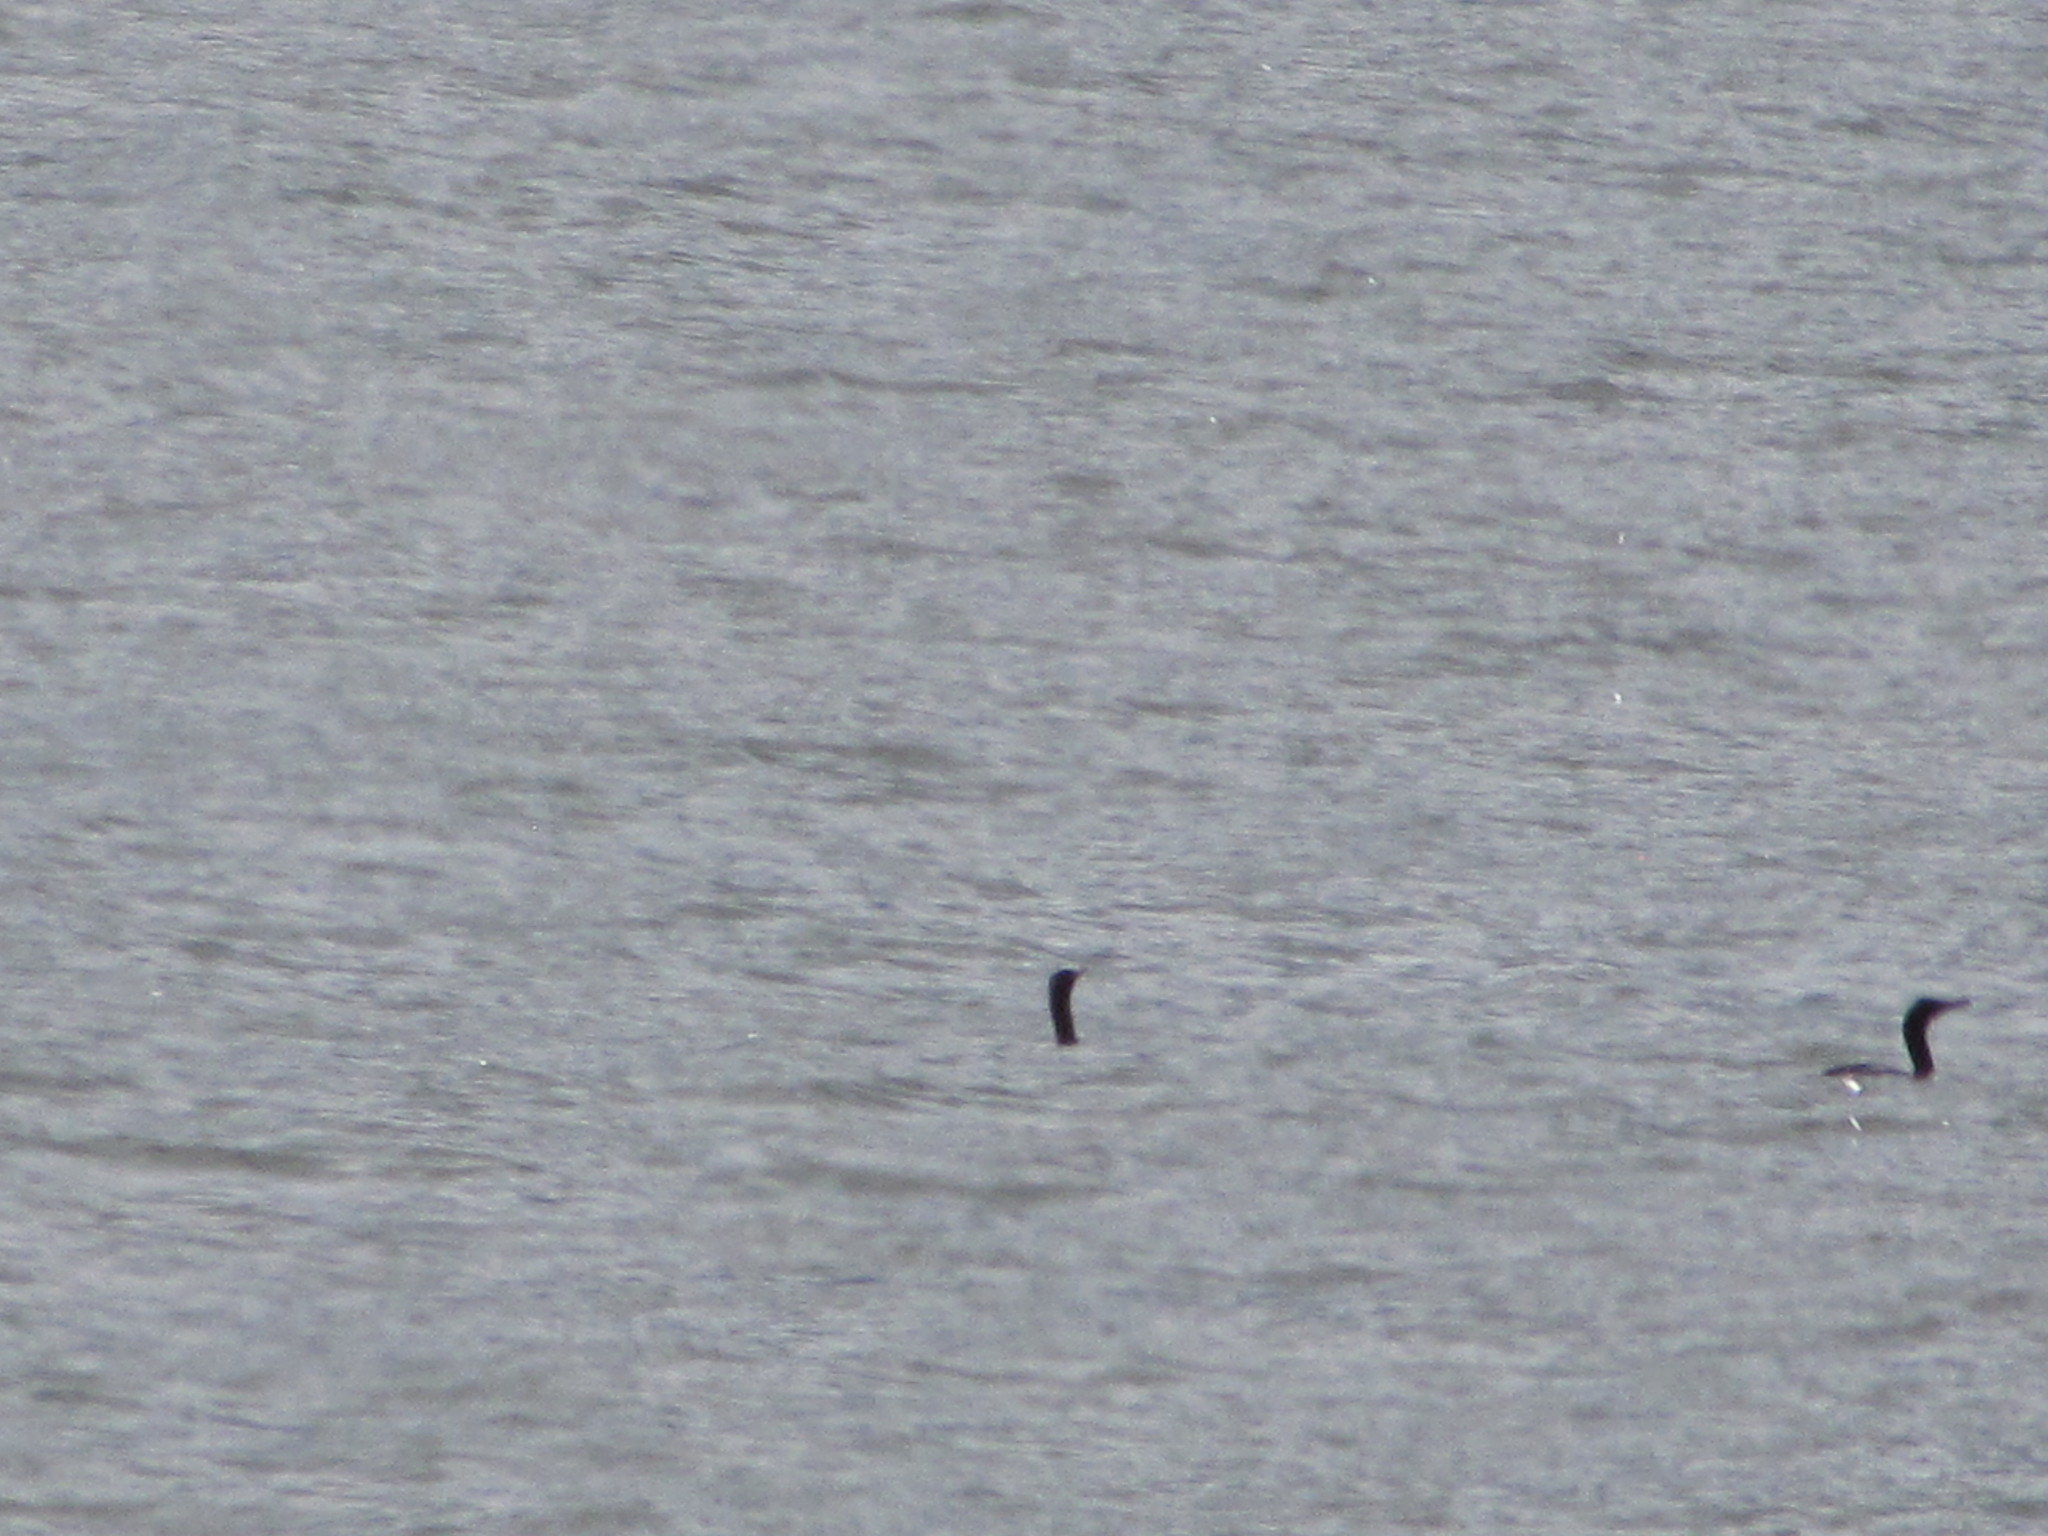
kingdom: Animalia
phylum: Chordata
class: Aves
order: Suliformes
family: Phalacrocoracidae
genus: Phalacrocorax
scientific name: Phalacrocorax auritus
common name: Double-crested cormorant
